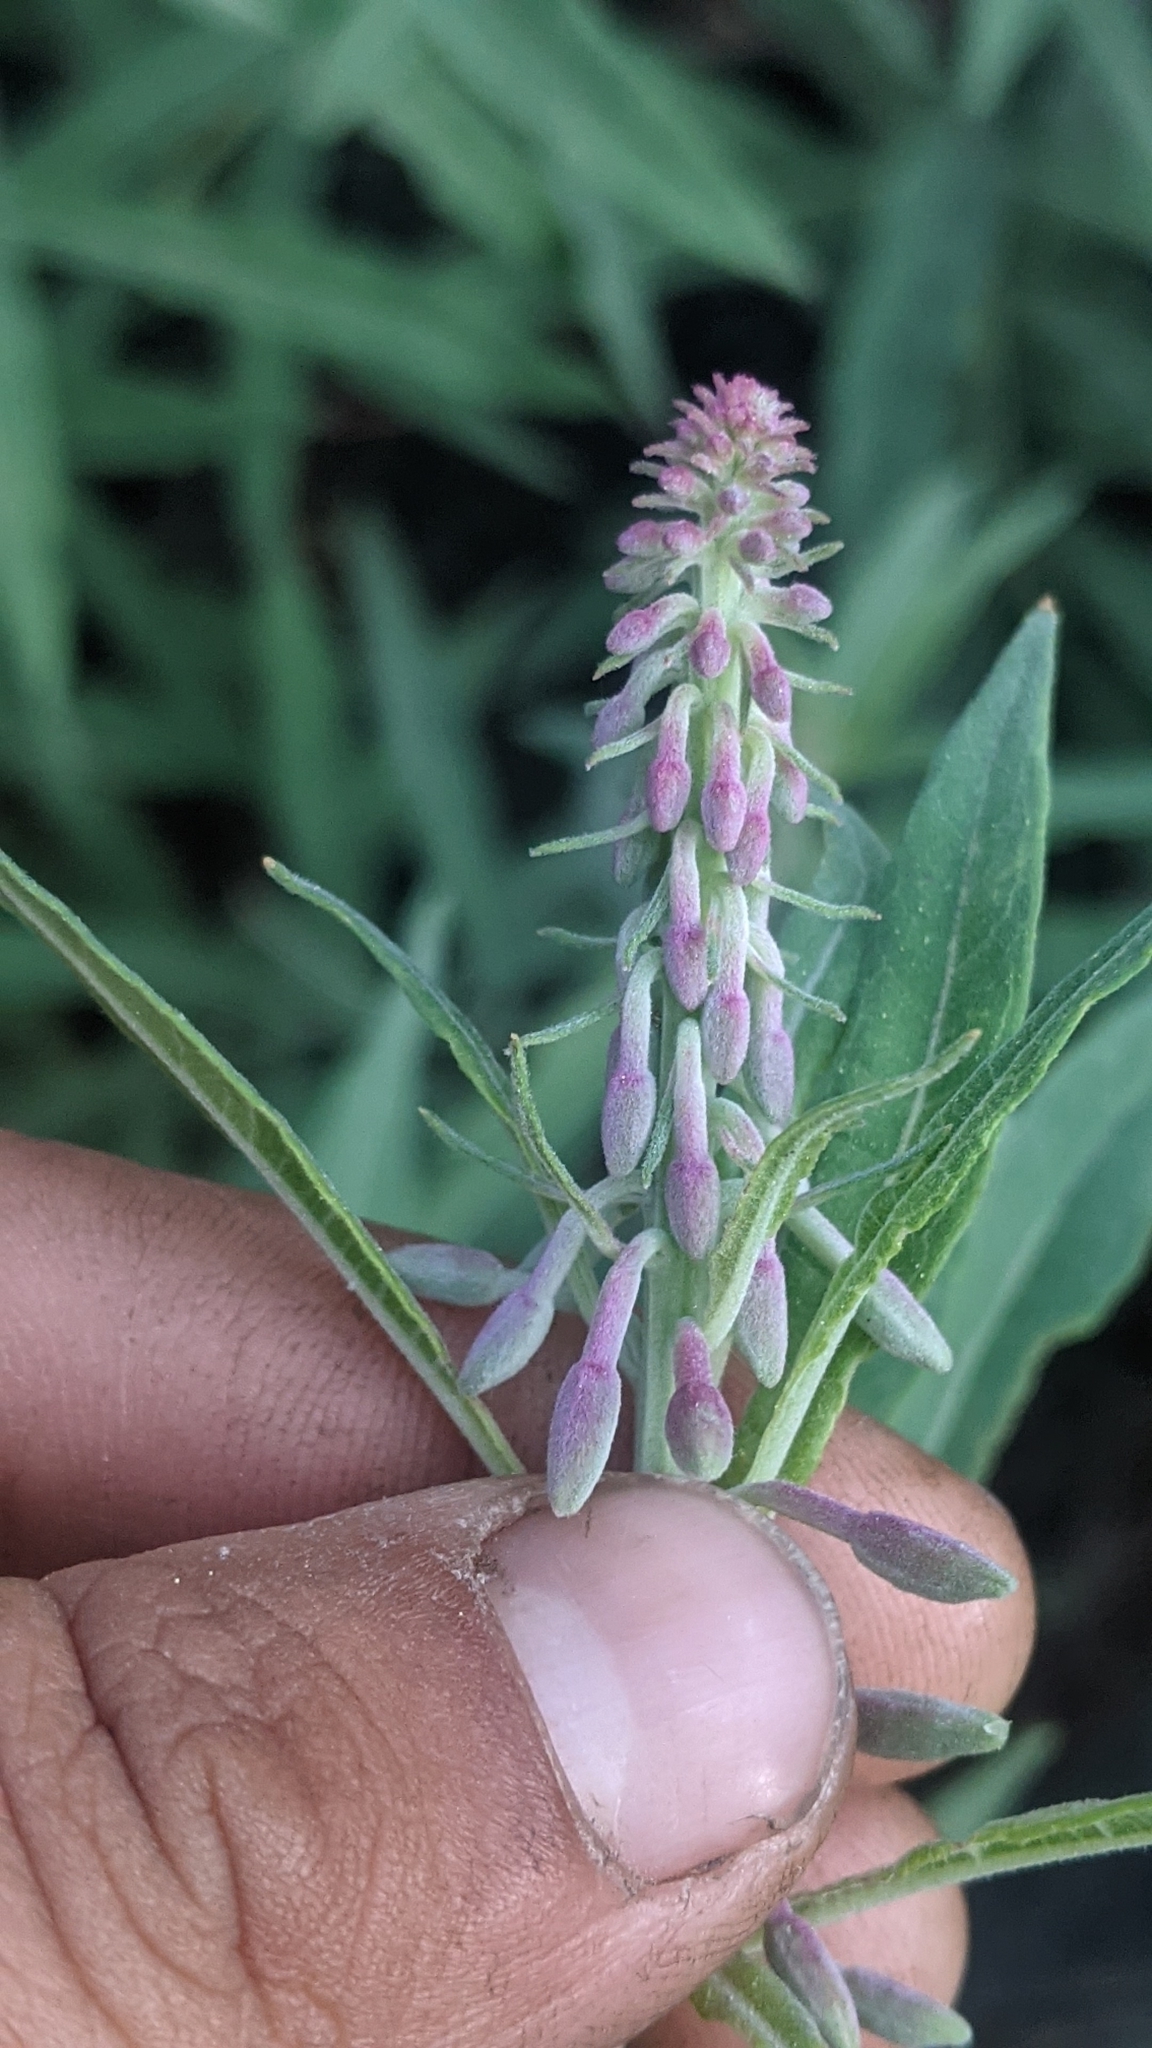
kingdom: Plantae
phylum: Tracheophyta
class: Magnoliopsida
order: Myrtales
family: Onagraceae
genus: Chamaenerion
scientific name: Chamaenerion angustifolium
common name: Fireweed
